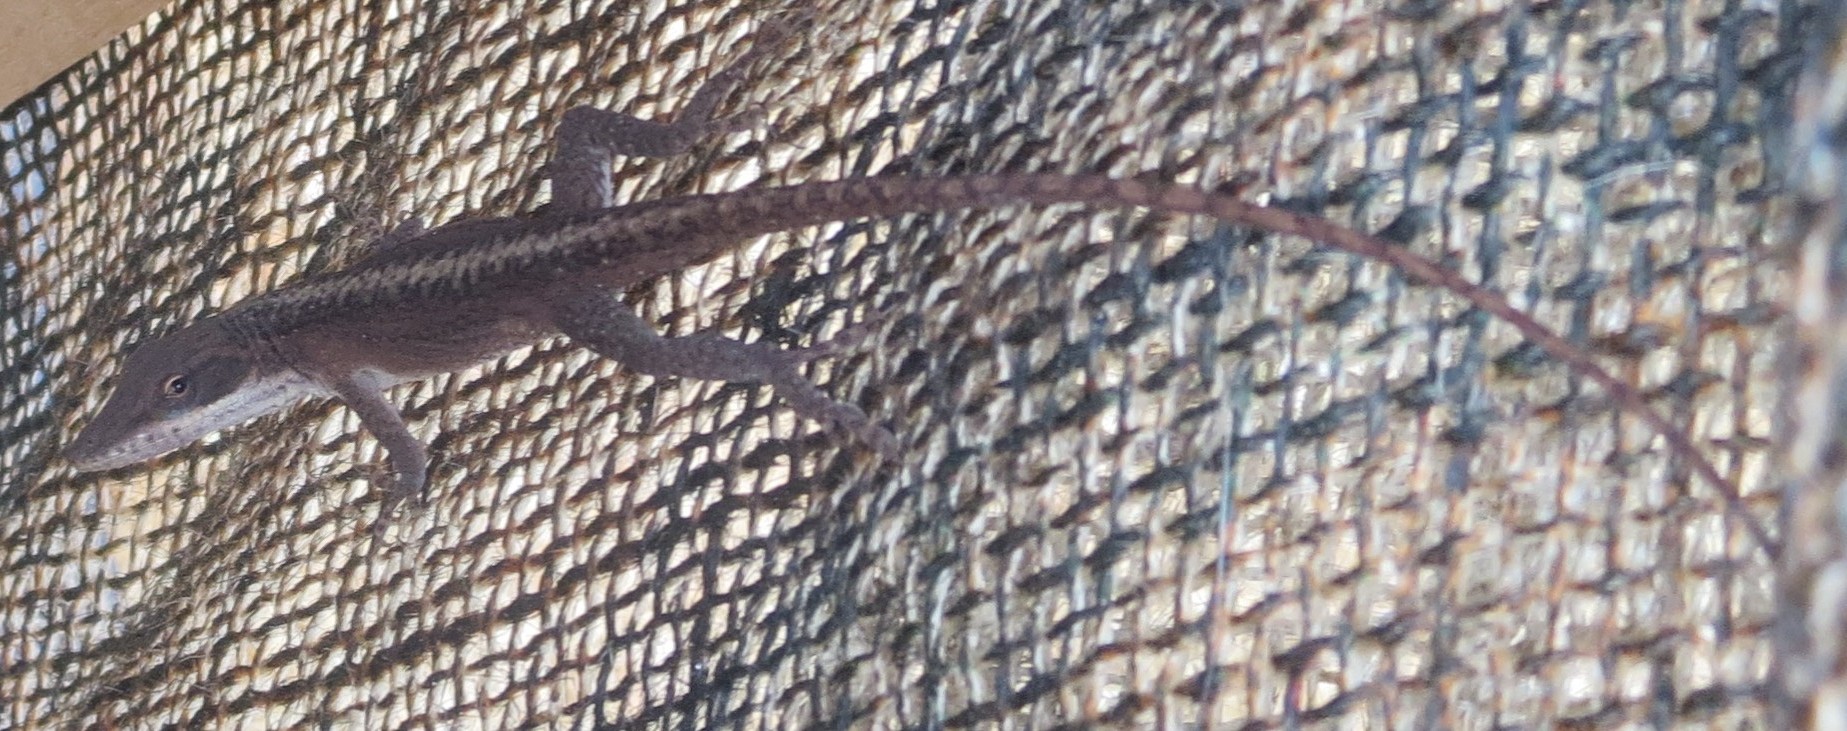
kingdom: Animalia
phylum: Chordata
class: Squamata
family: Dactyloidae
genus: Anolis
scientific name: Anolis carolinensis
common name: Green anole
